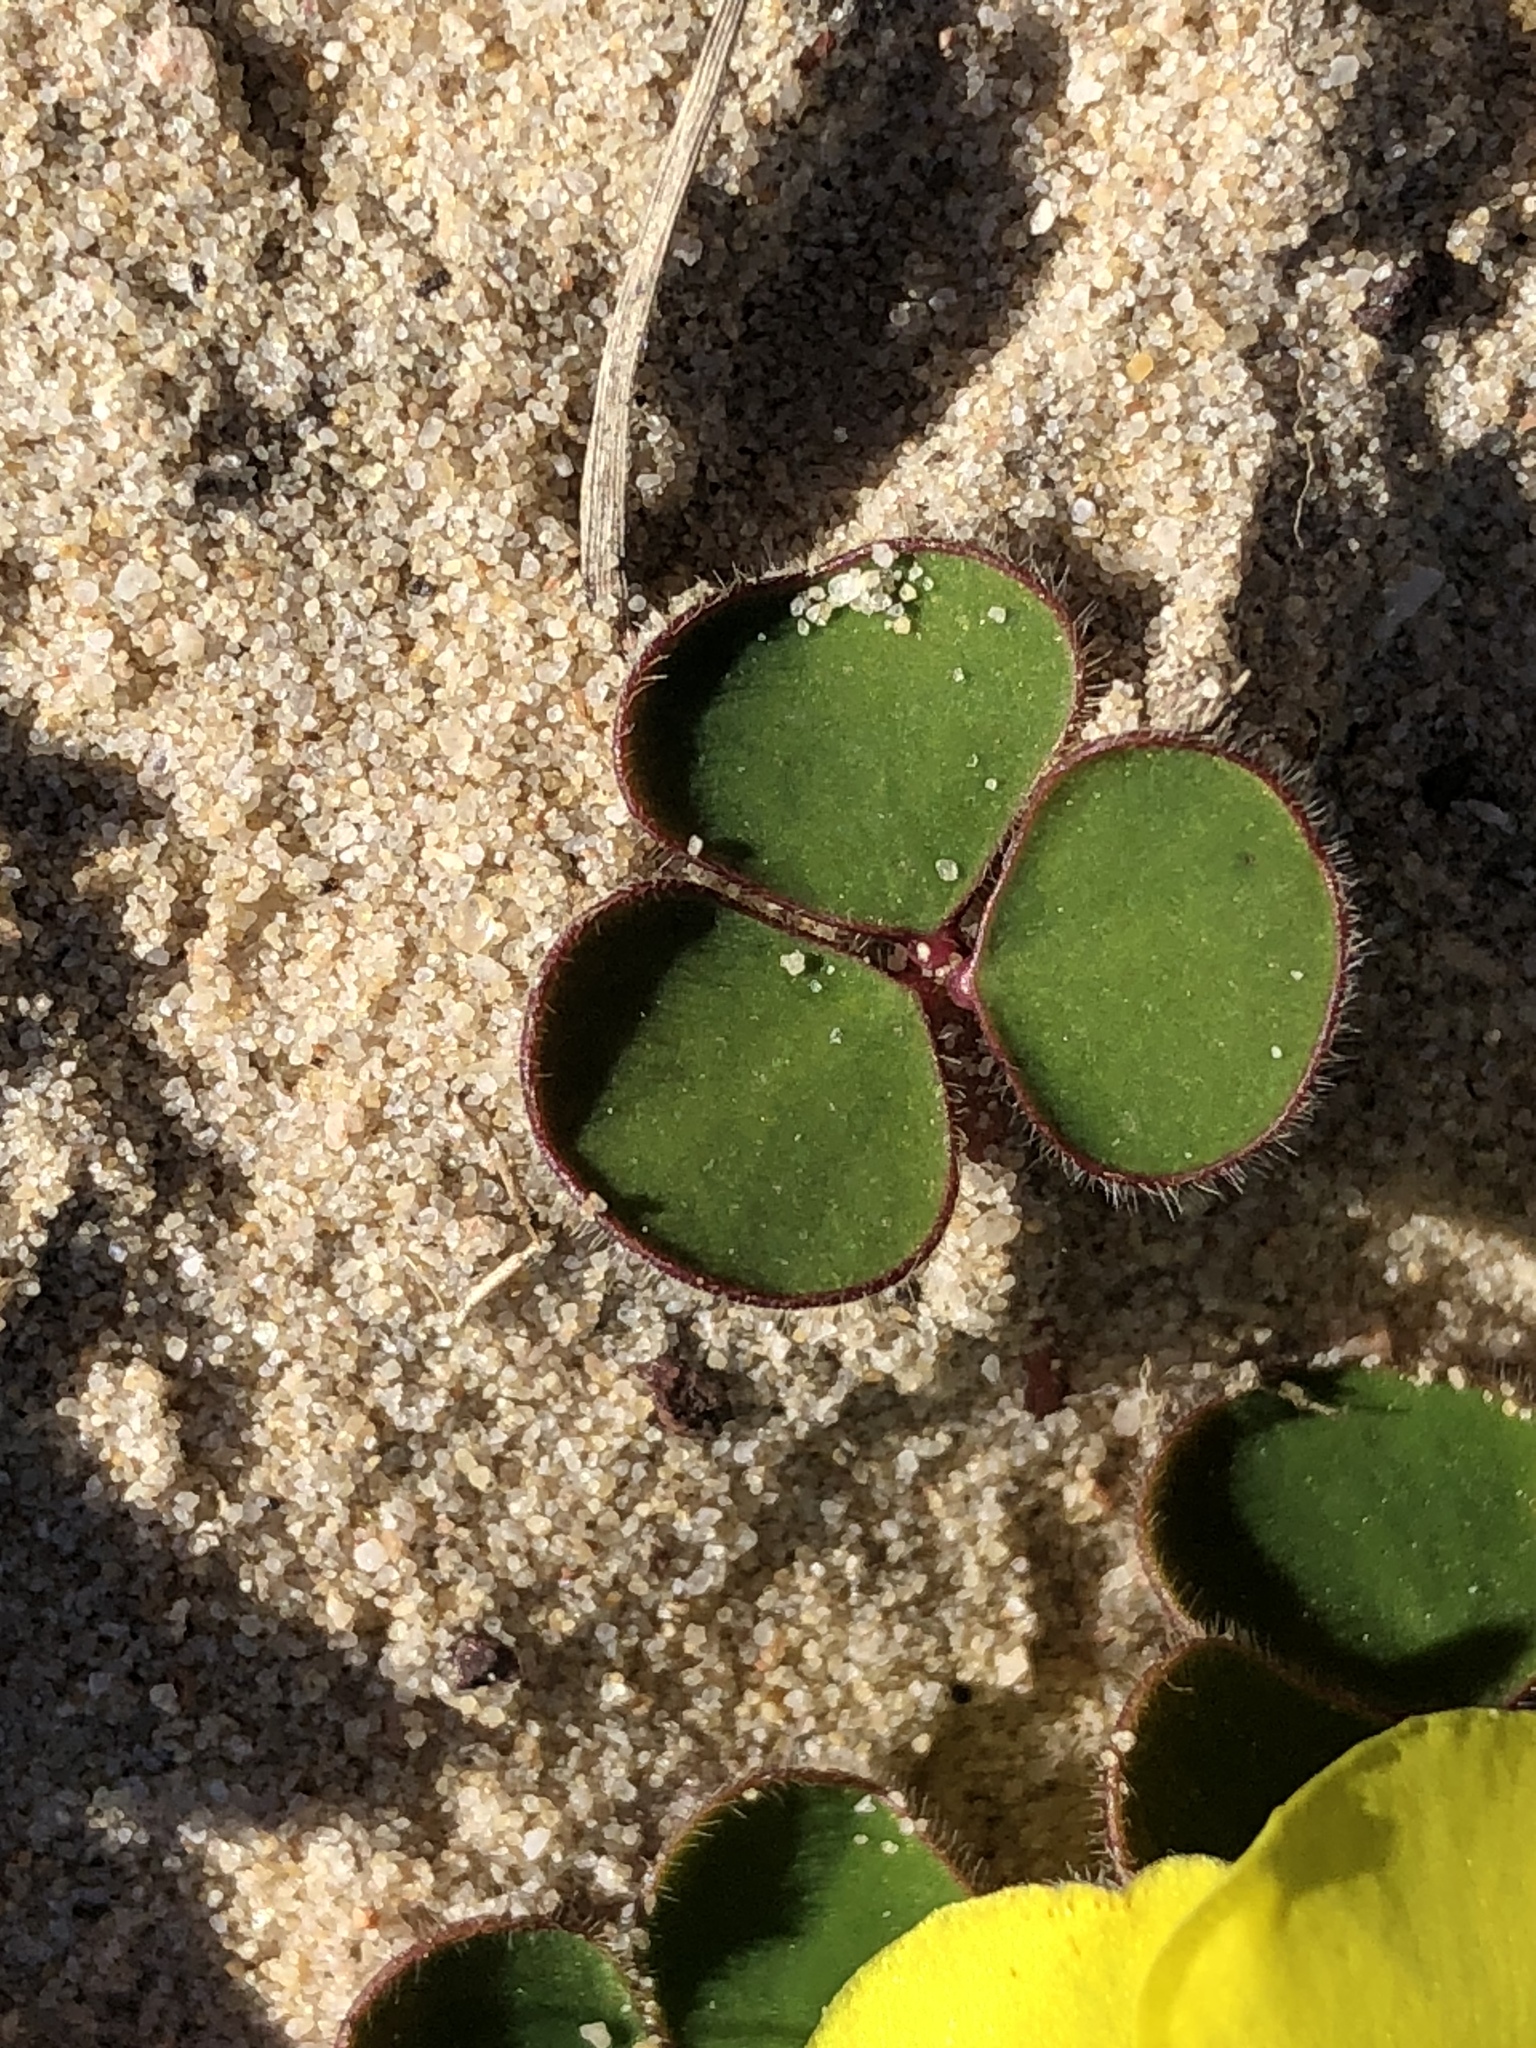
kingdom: Plantae
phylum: Tracheophyta
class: Magnoliopsida
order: Oxalidales
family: Oxalidaceae
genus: Oxalis
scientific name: Oxalis luteola
